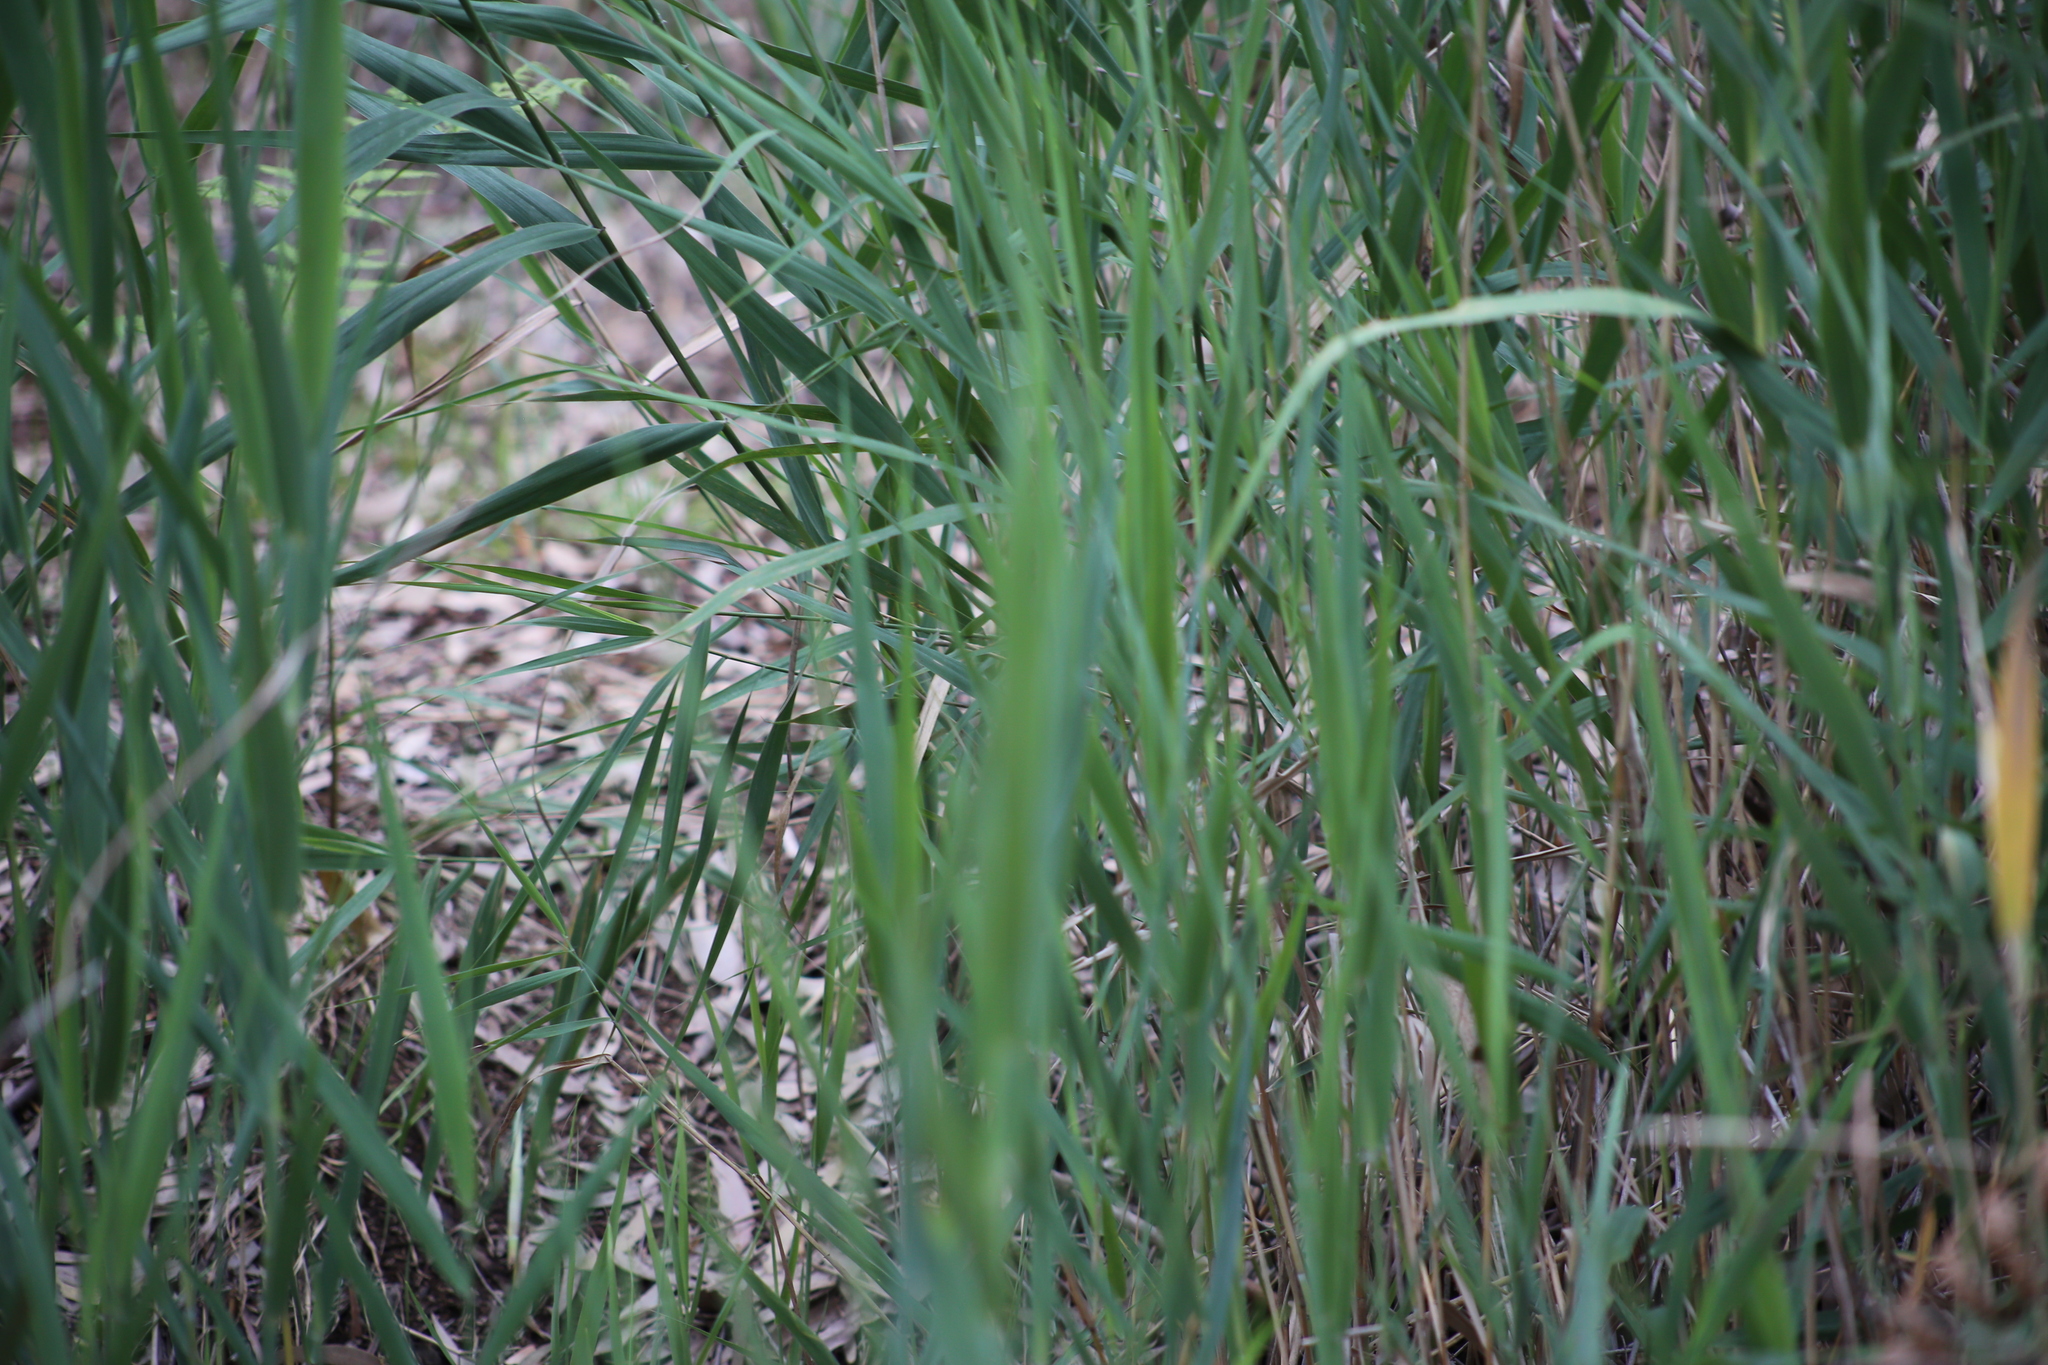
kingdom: Plantae
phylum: Tracheophyta
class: Liliopsida
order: Poales
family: Poaceae
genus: Phragmites
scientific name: Phragmites australis
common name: Common reed
